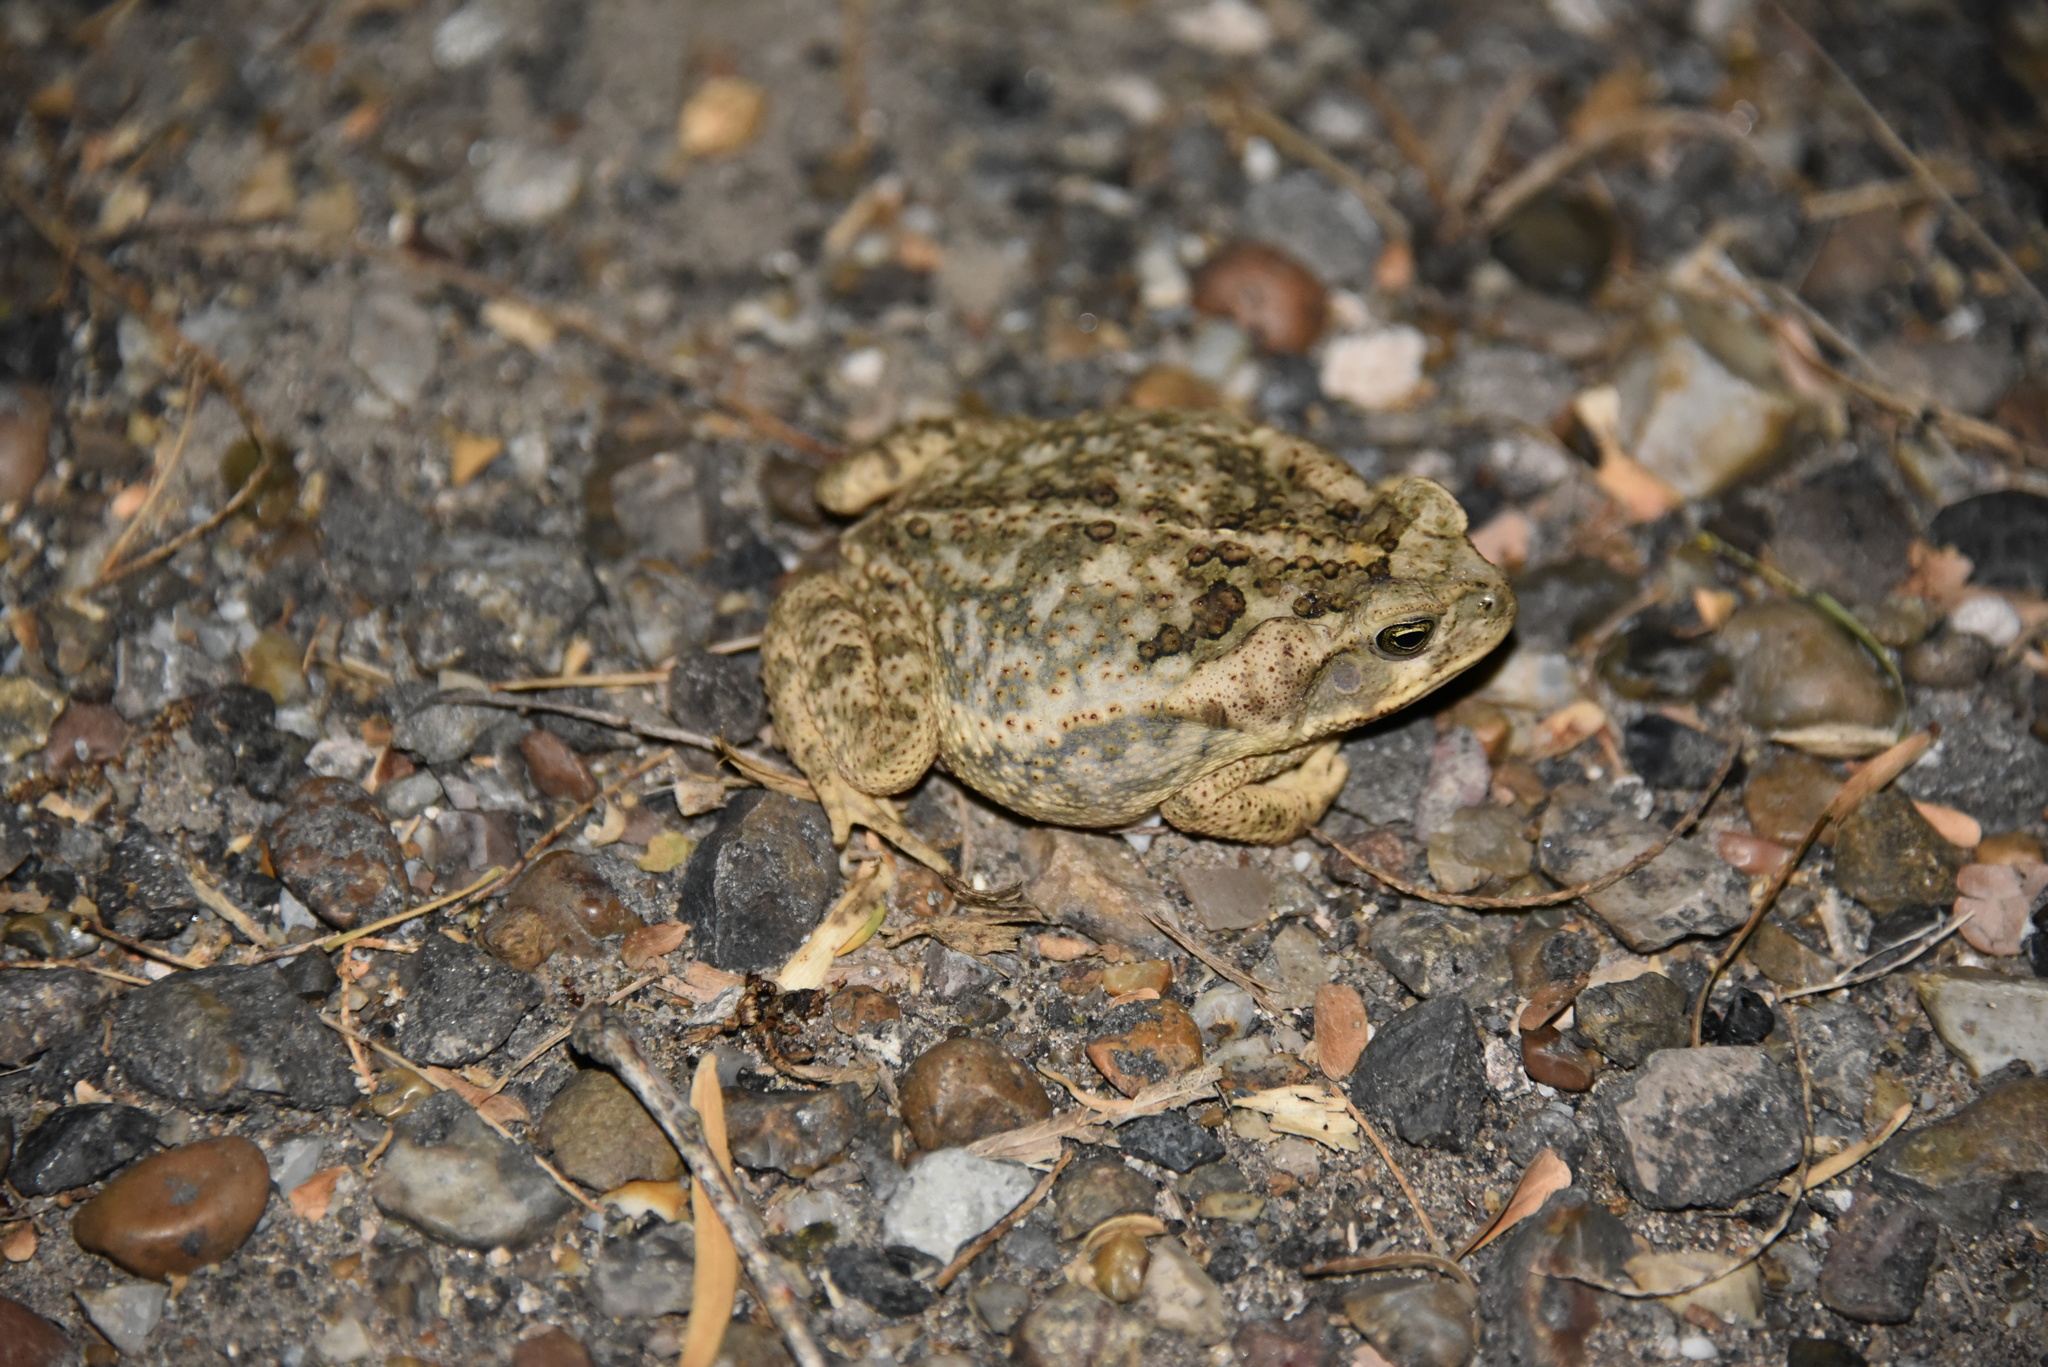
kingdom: Animalia
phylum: Chordata
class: Amphibia
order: Anura
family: Bufonidae
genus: Rhinella
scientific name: Rhinella horribilis
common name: Mesoamerican cane toad
